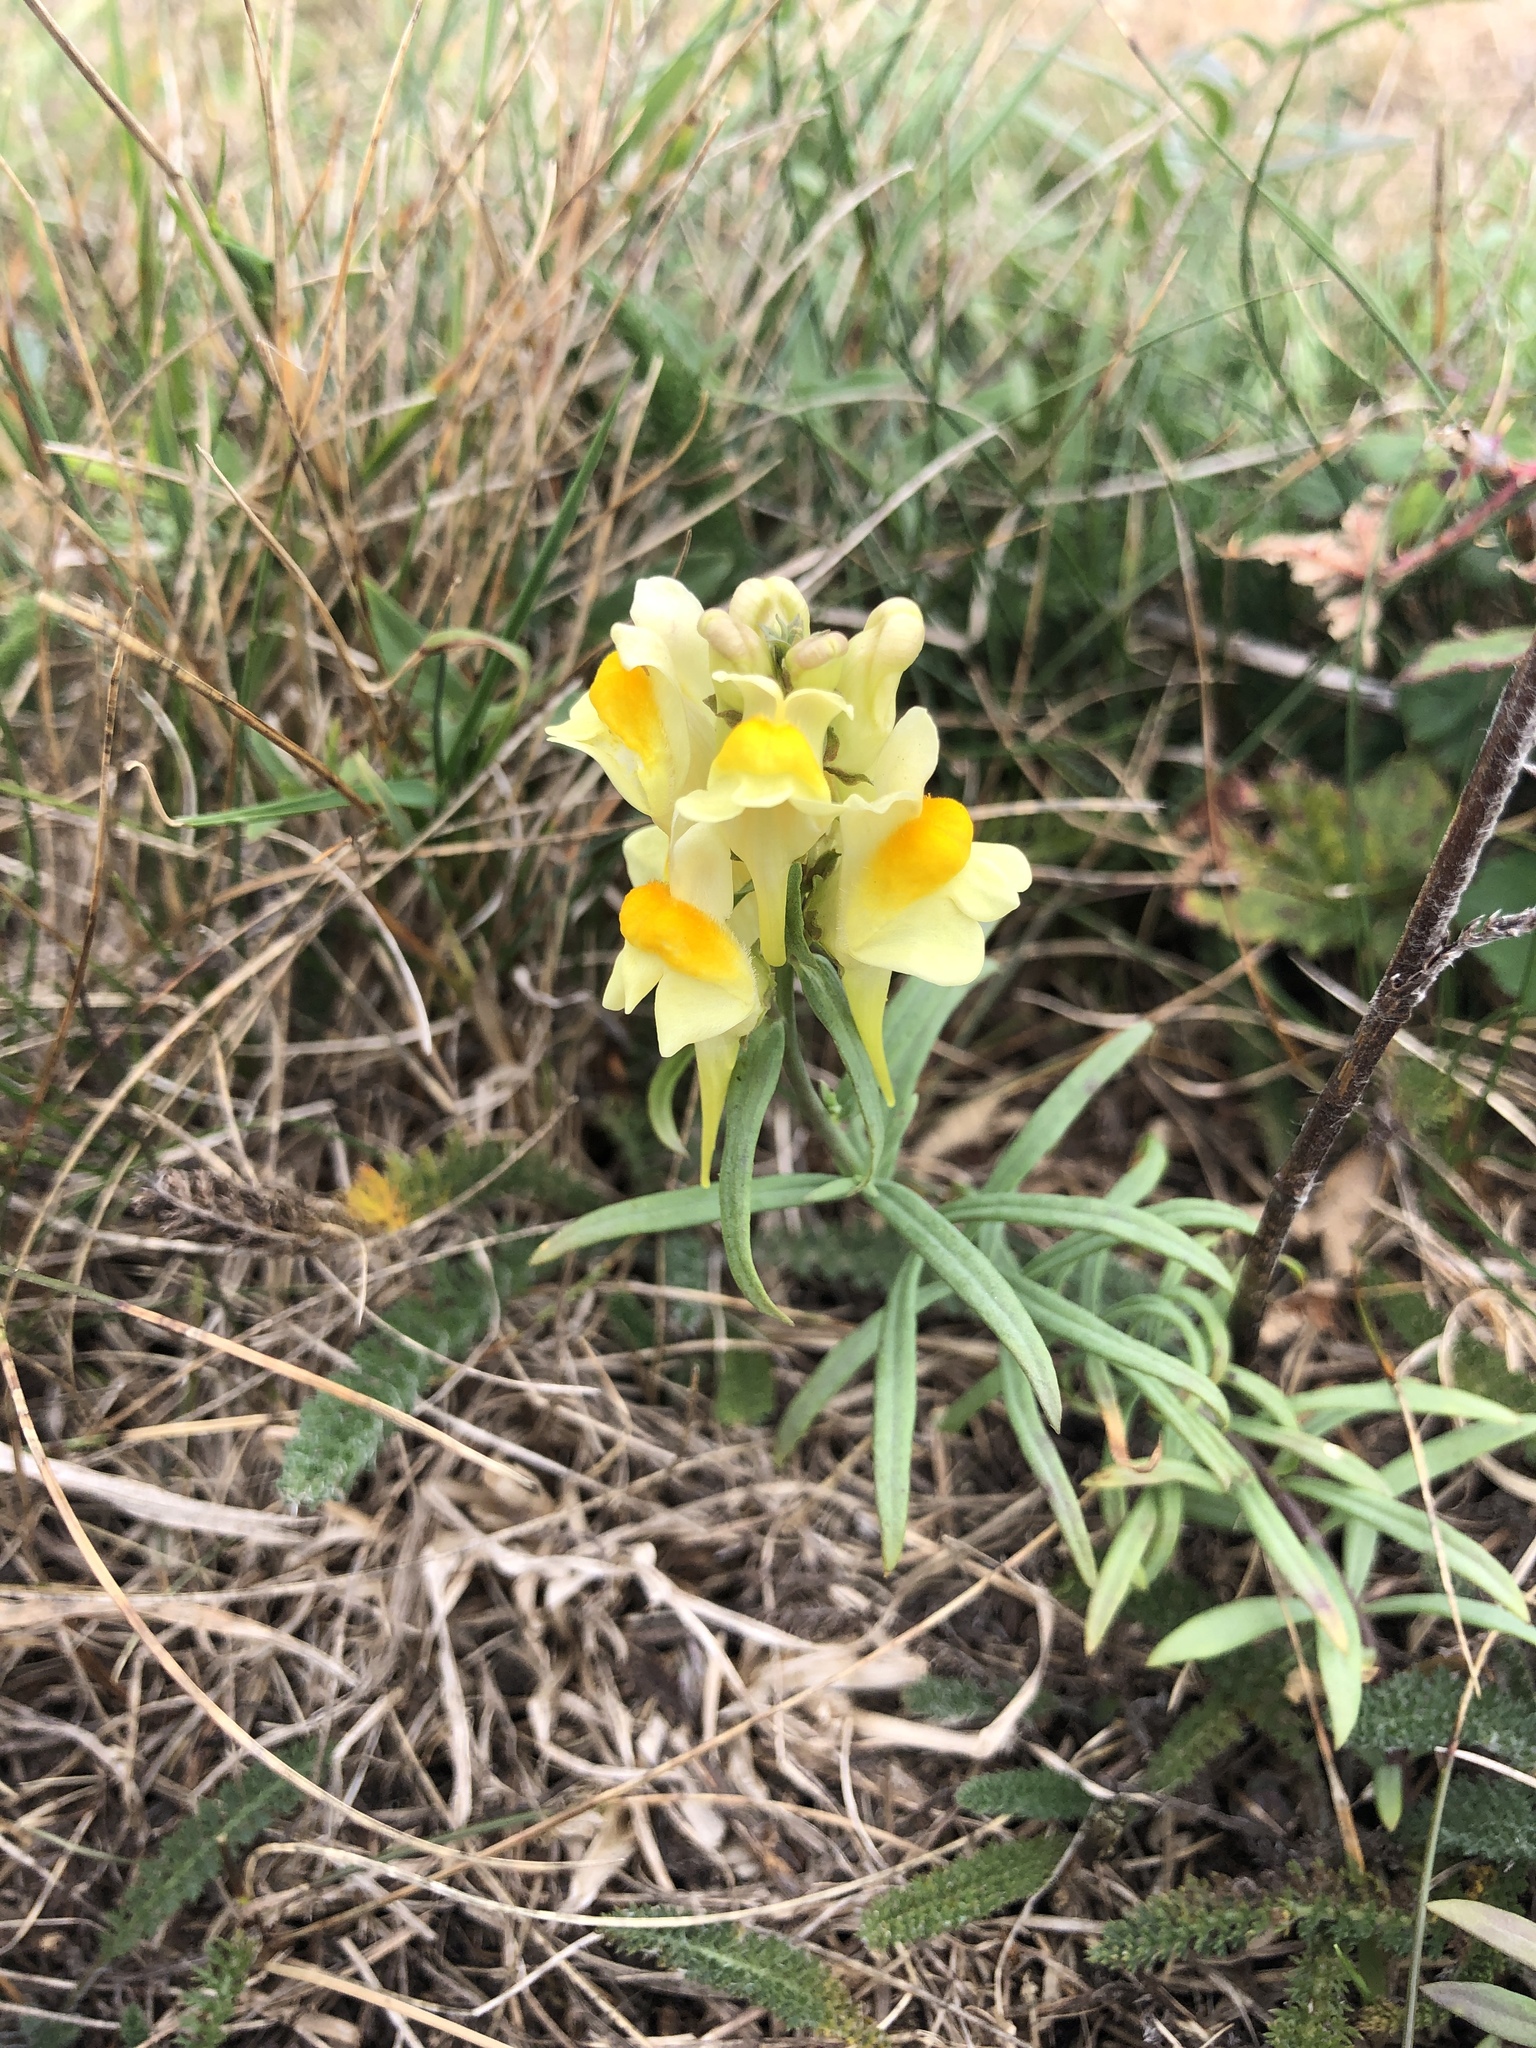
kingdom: Plantae
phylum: Tracheophyta
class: Magnoliopsida
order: Lamiales
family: Plantaginaceae
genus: Linaria
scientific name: Linaria vulgaris
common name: Butter and eggs
